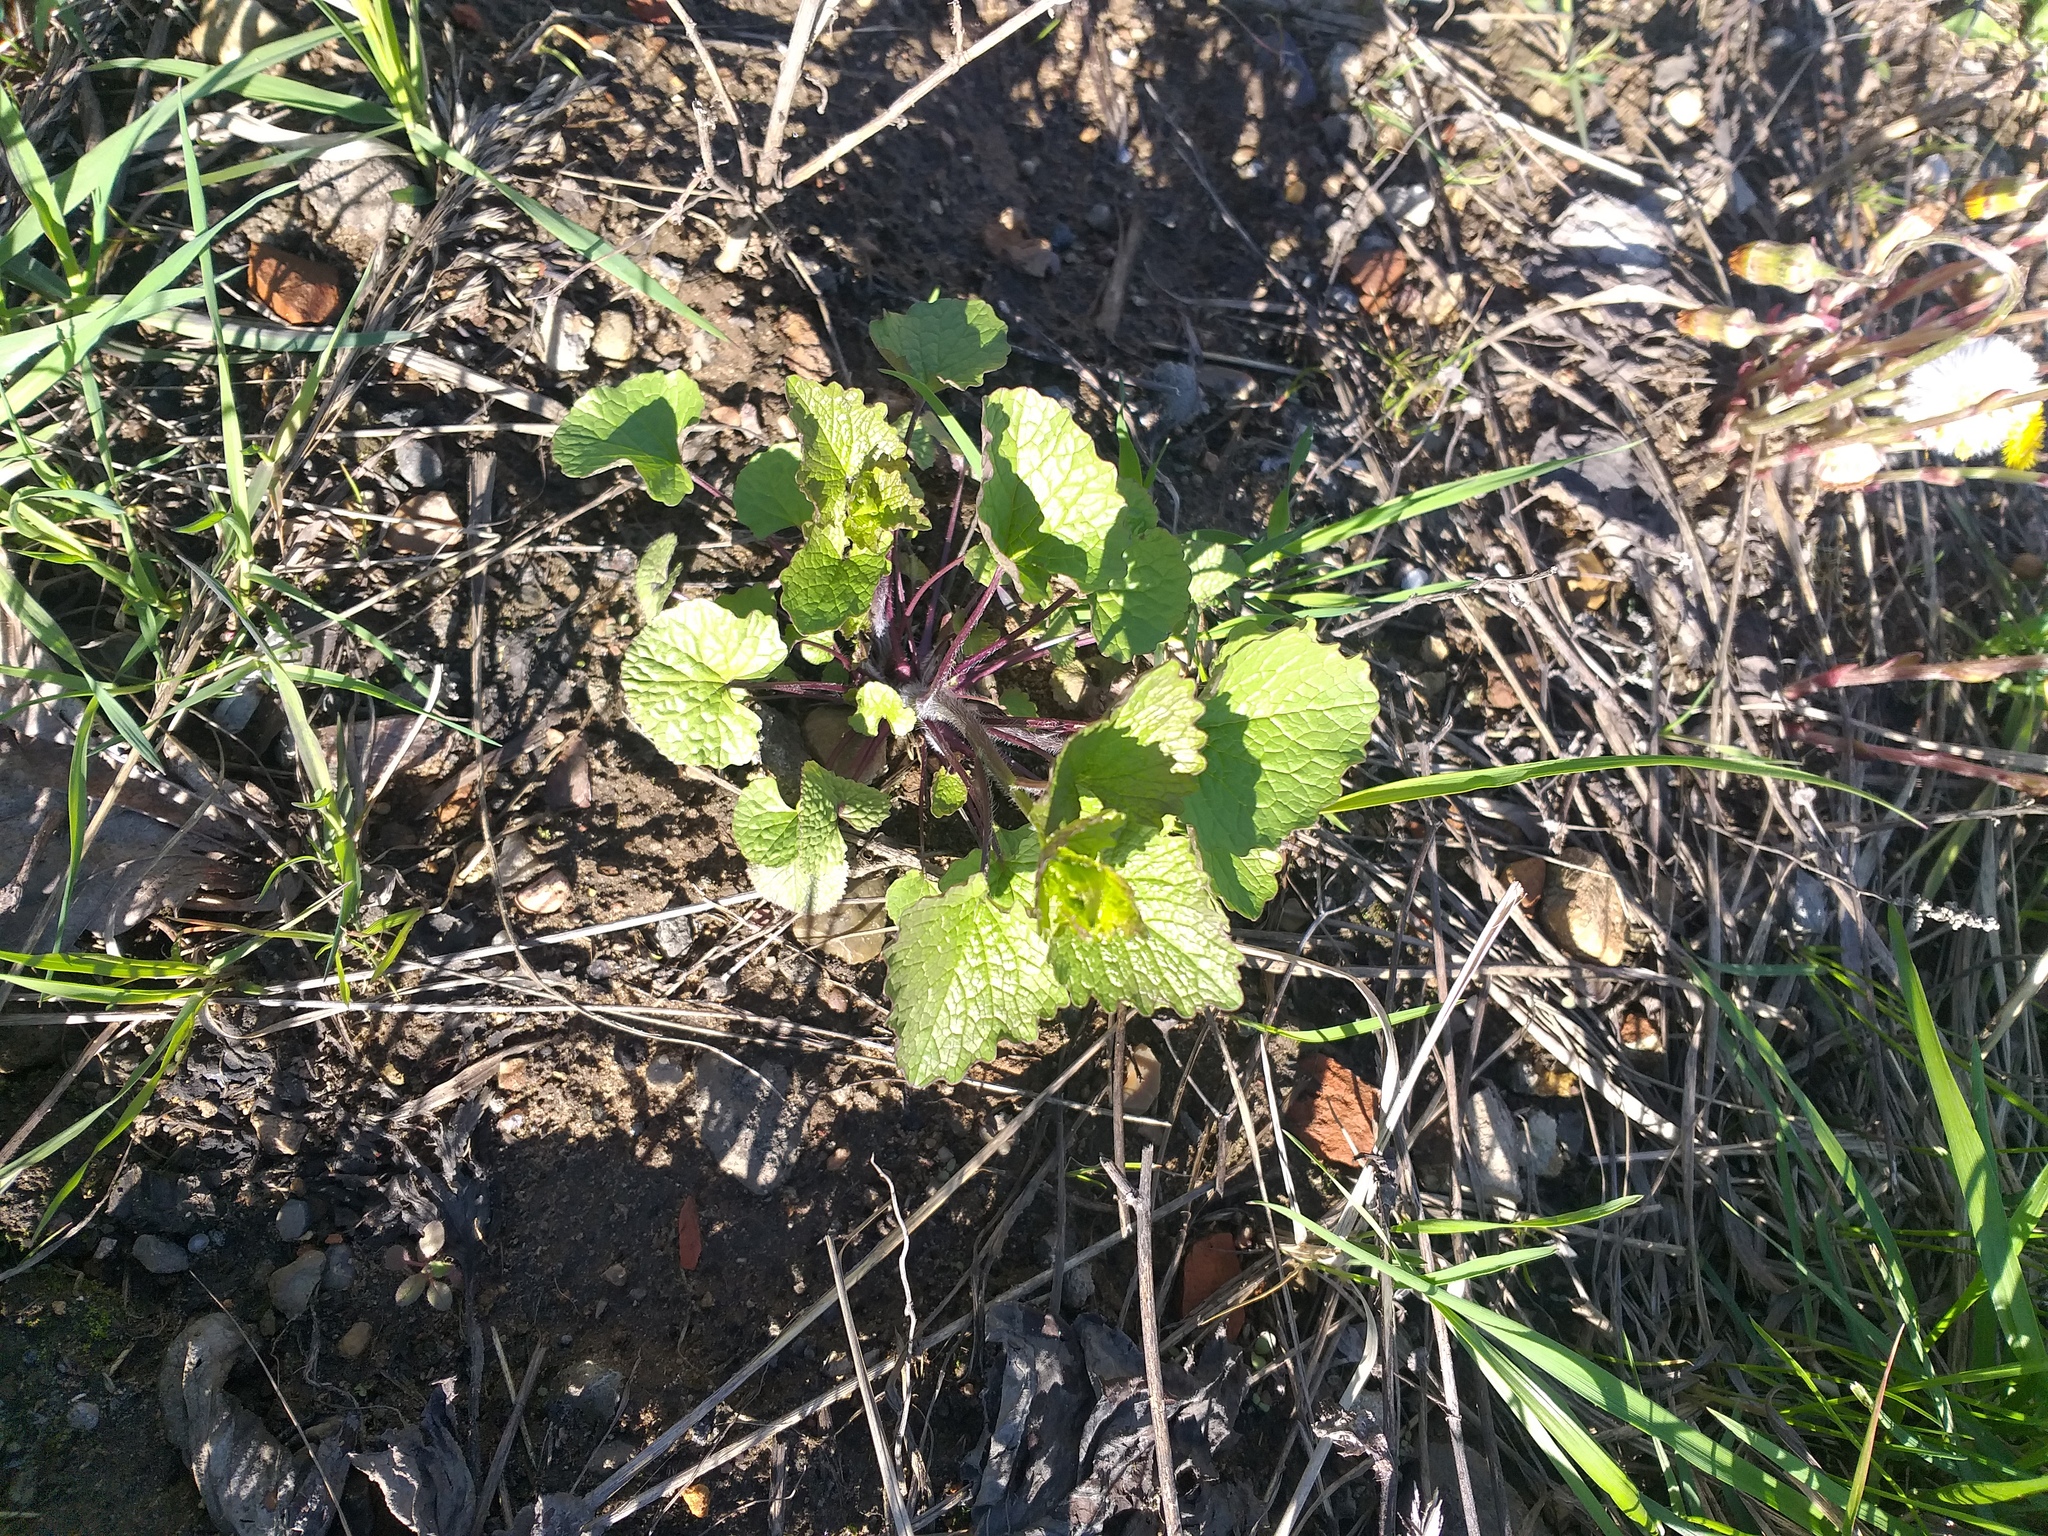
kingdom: Plantae
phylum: Tracheophyta
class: Magnoliopsida
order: Brassicales
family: Brassicaceae
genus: Alliaria
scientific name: Alliaria petiolata
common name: Garlic mustard
